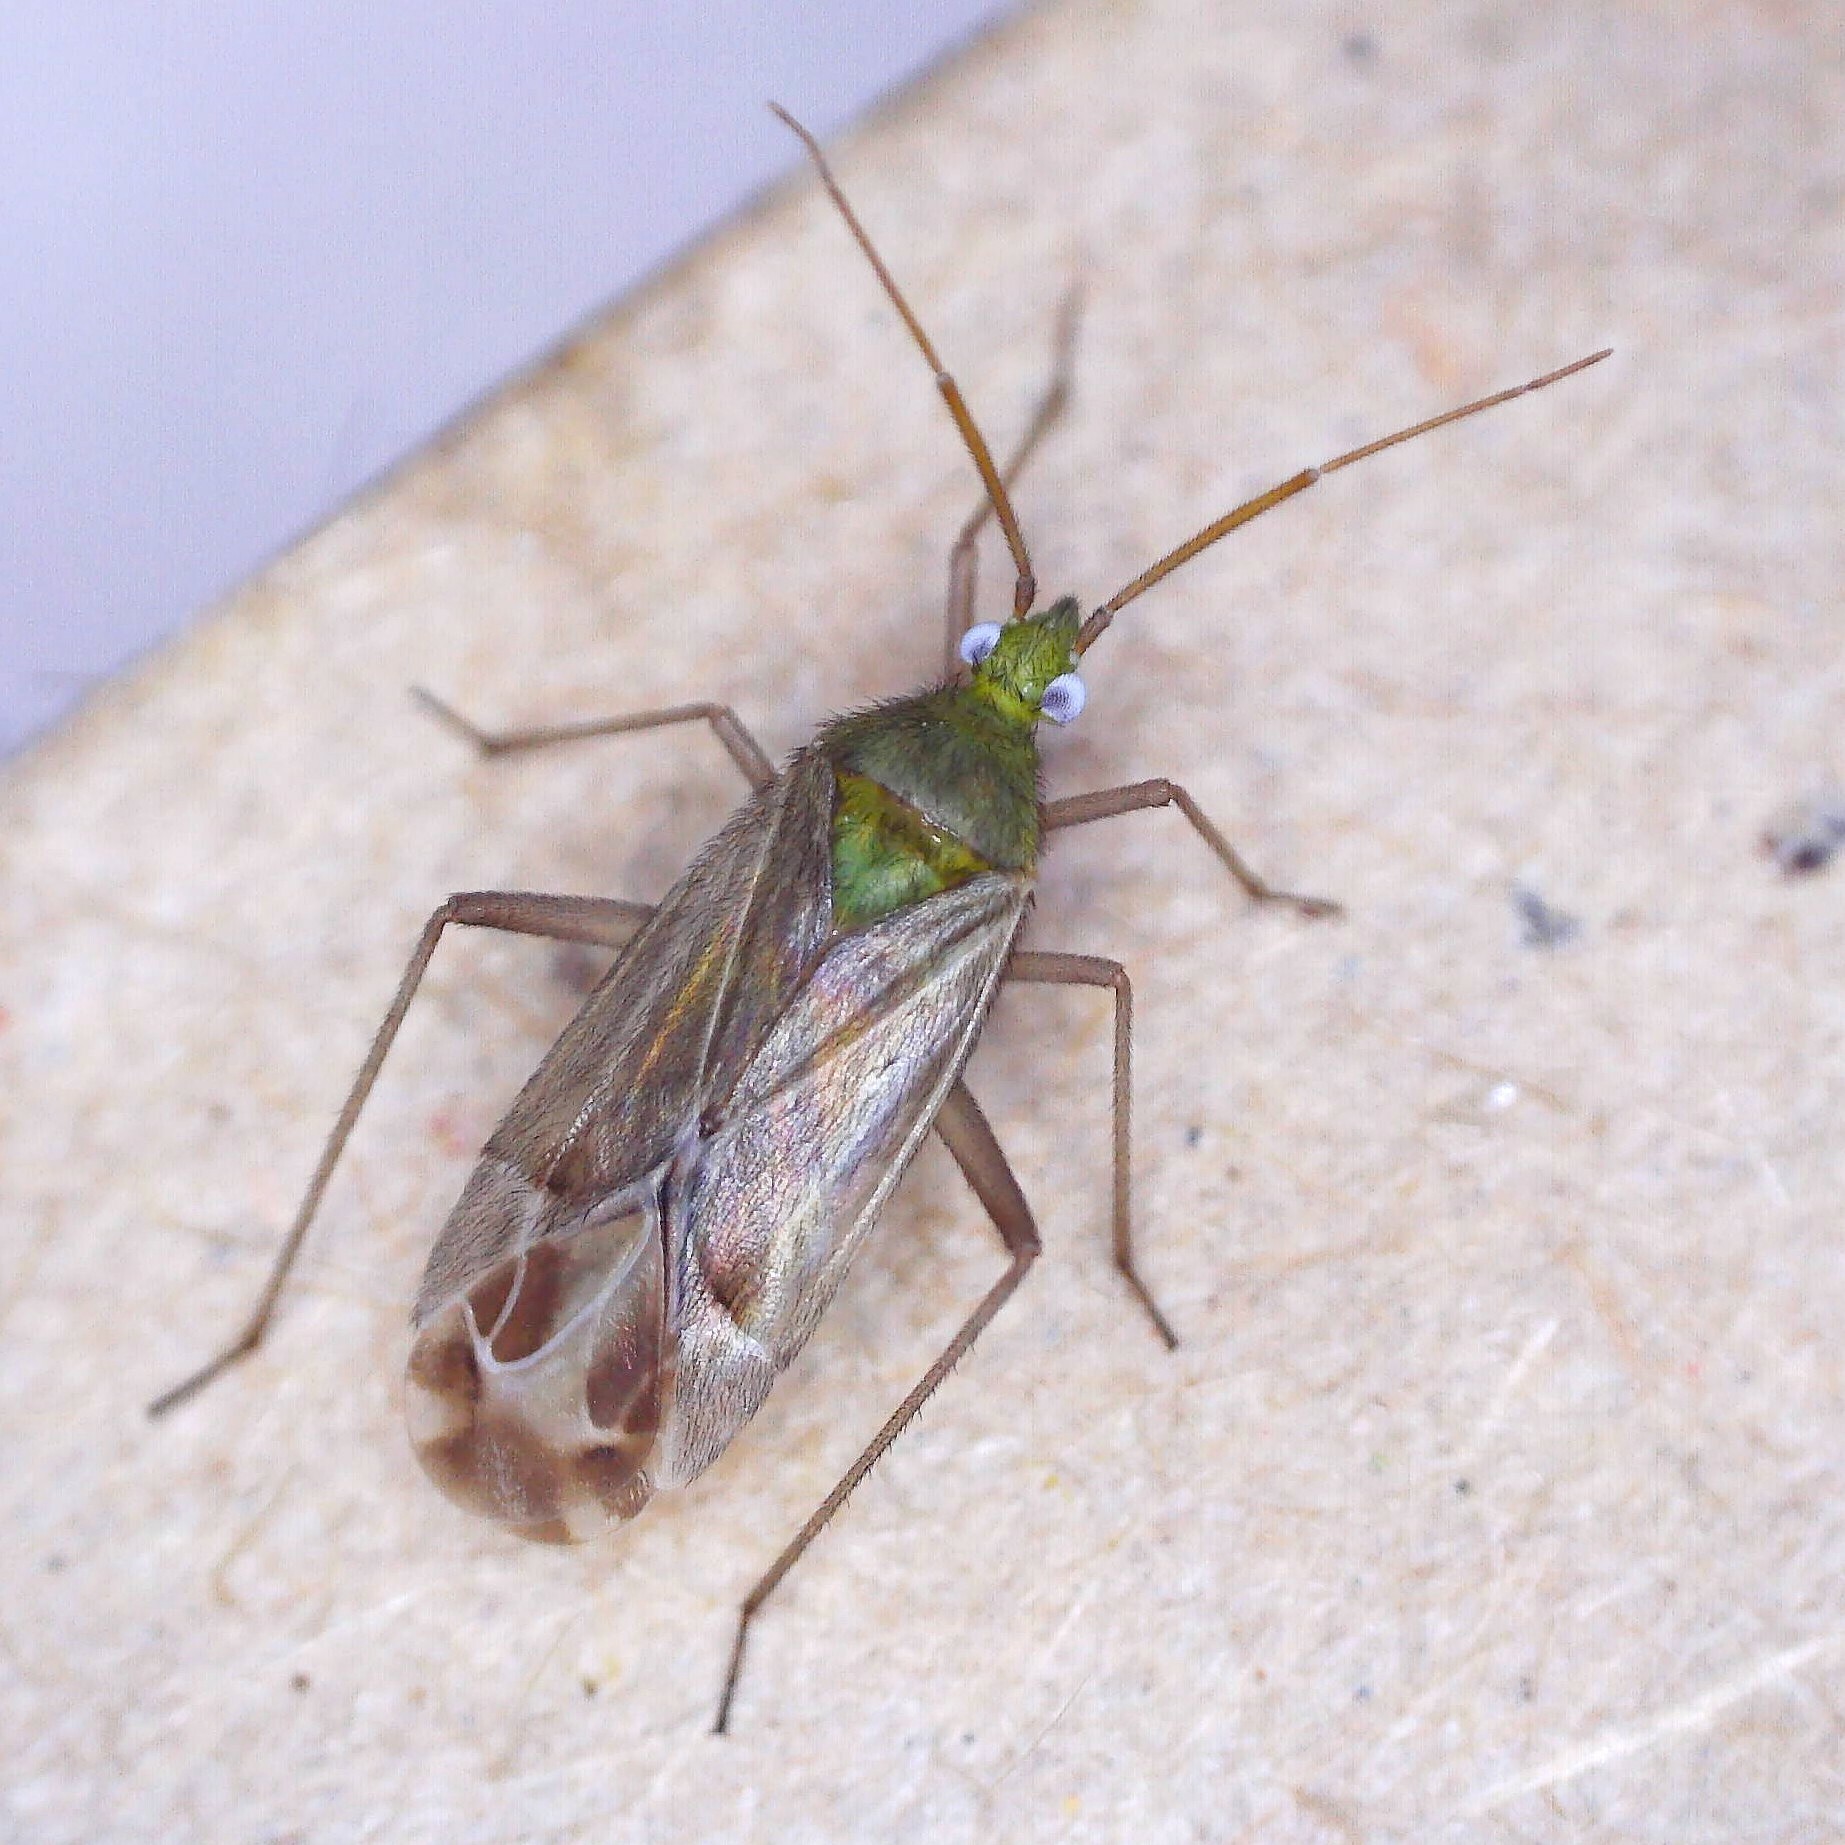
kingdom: Animalia
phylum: Arthropoda
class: Insecta
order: Hemiptera
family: Miridae
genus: Macrotylus
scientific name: Macrotylus solitarius
